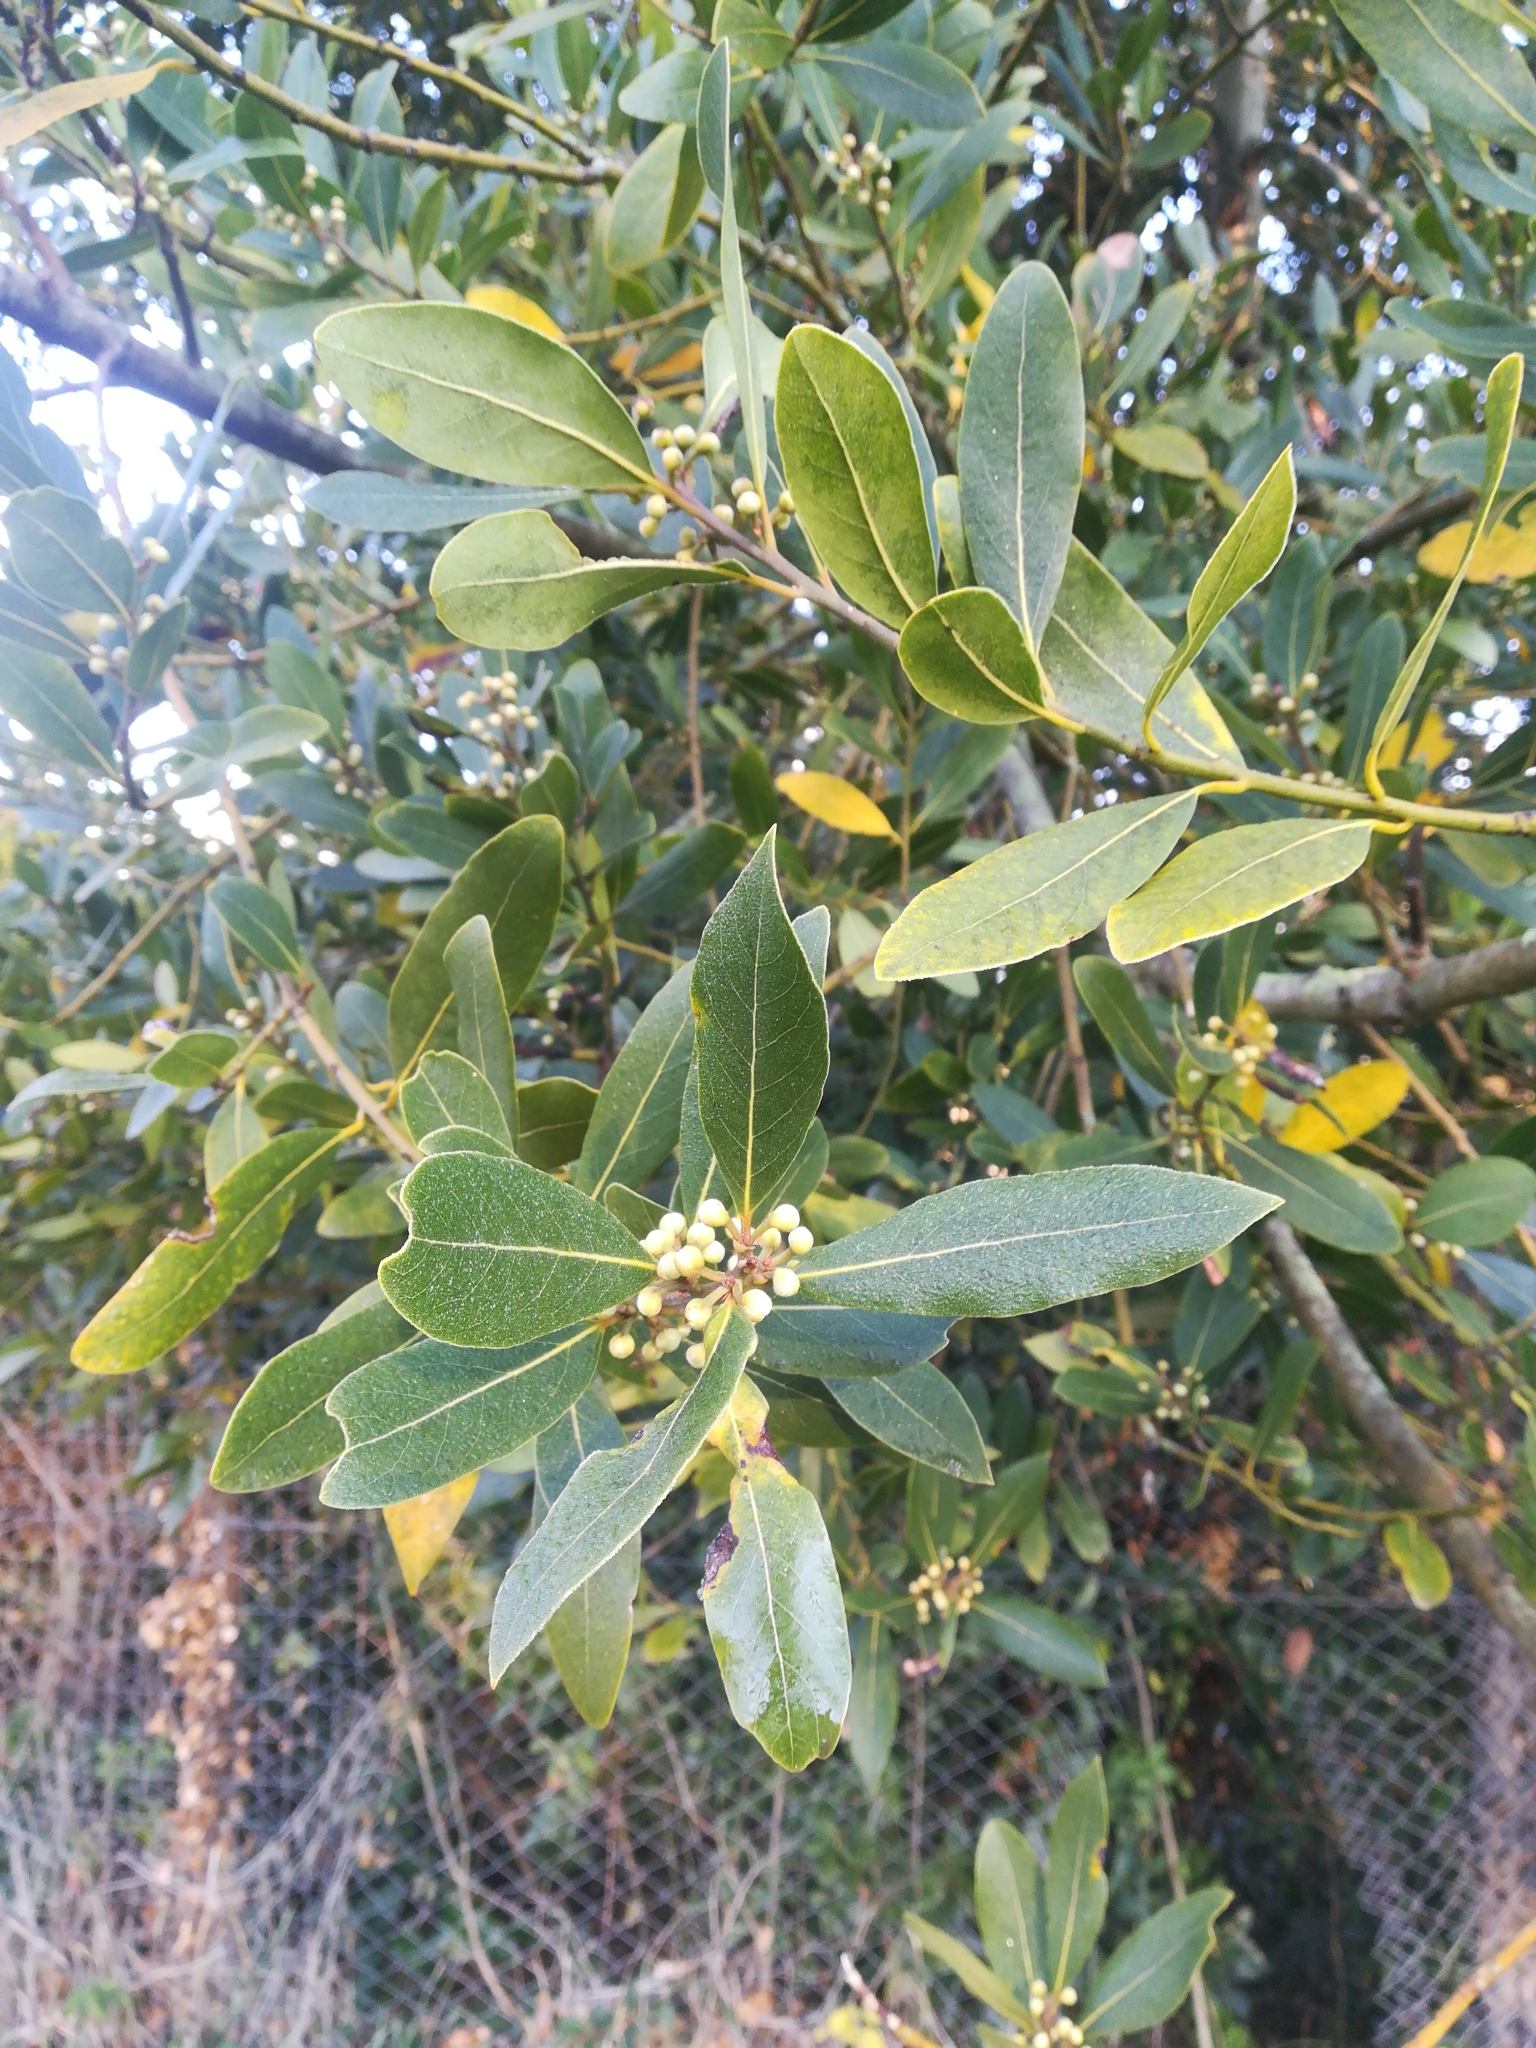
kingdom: Plantae
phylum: Tracheophyta
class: Magnoliopsida
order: Laurales
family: Lauraceae
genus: Laurus
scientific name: Laurus nobilis
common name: Bay
